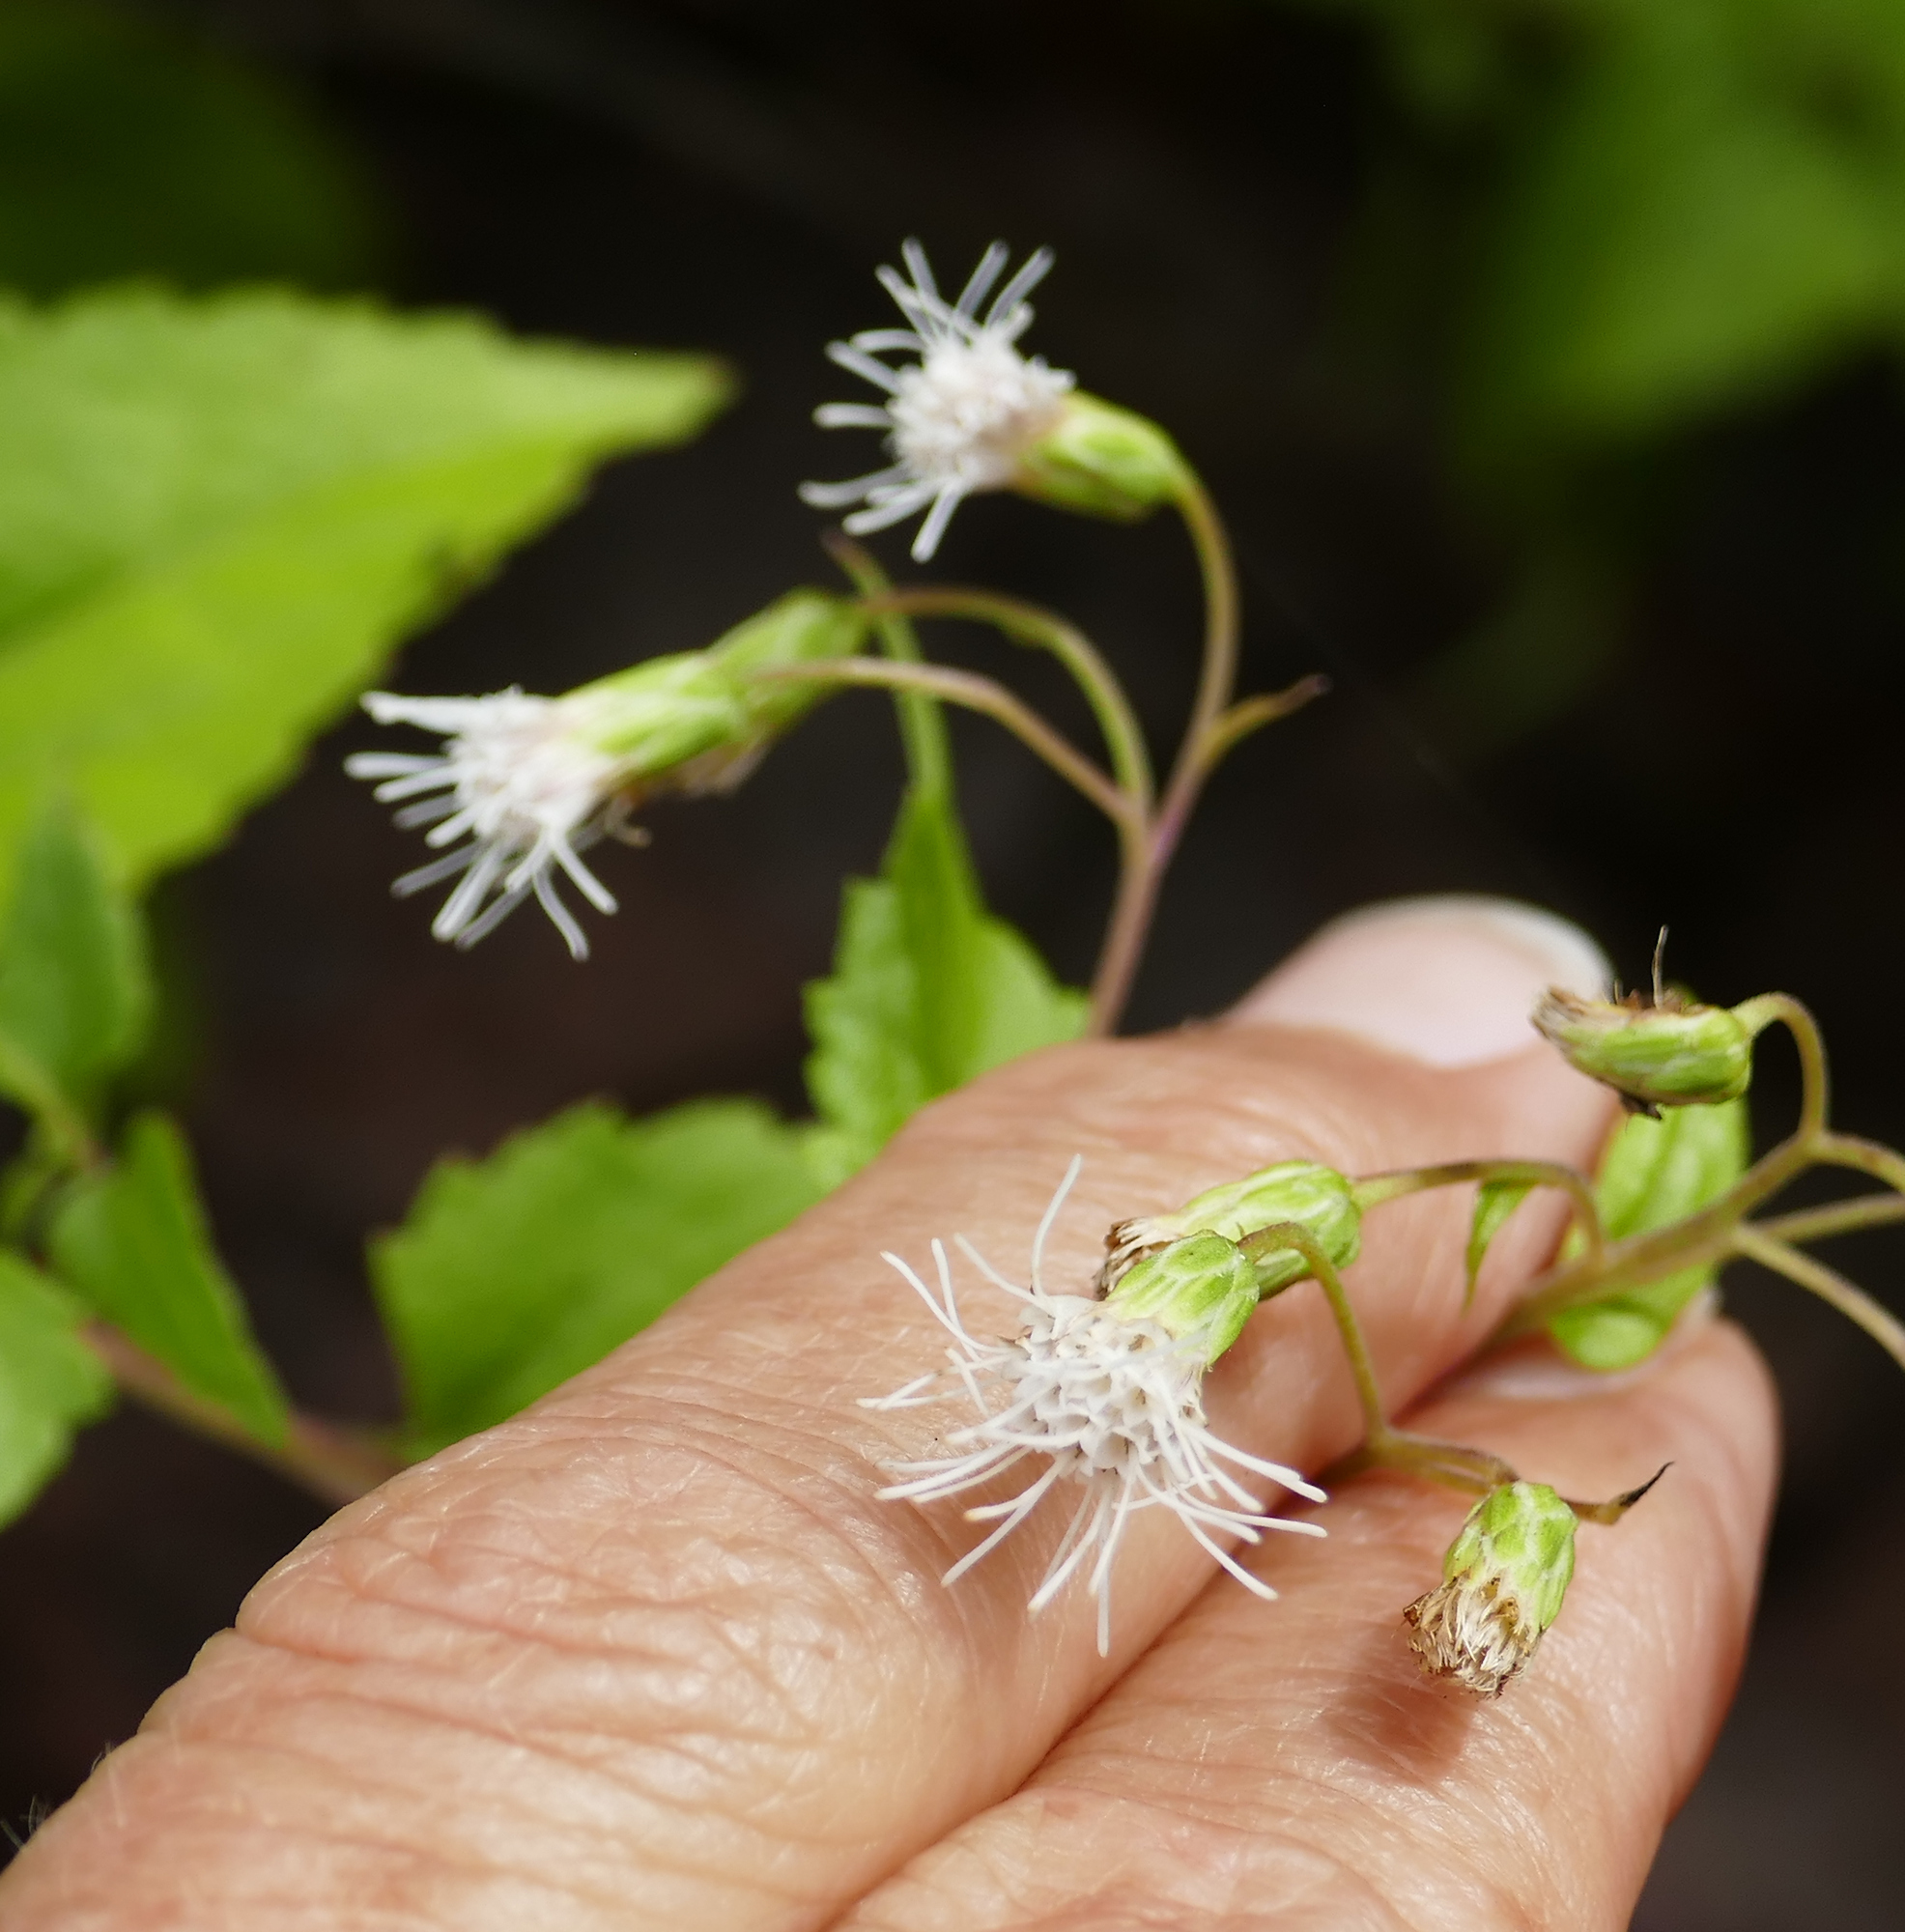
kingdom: Plantae
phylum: Tracheophyta
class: Magnoliopsida
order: Asterales
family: Asteraceae
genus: Brickelliastrum
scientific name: Brickelliastrum fendleri
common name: Fendler's-brickellbush
